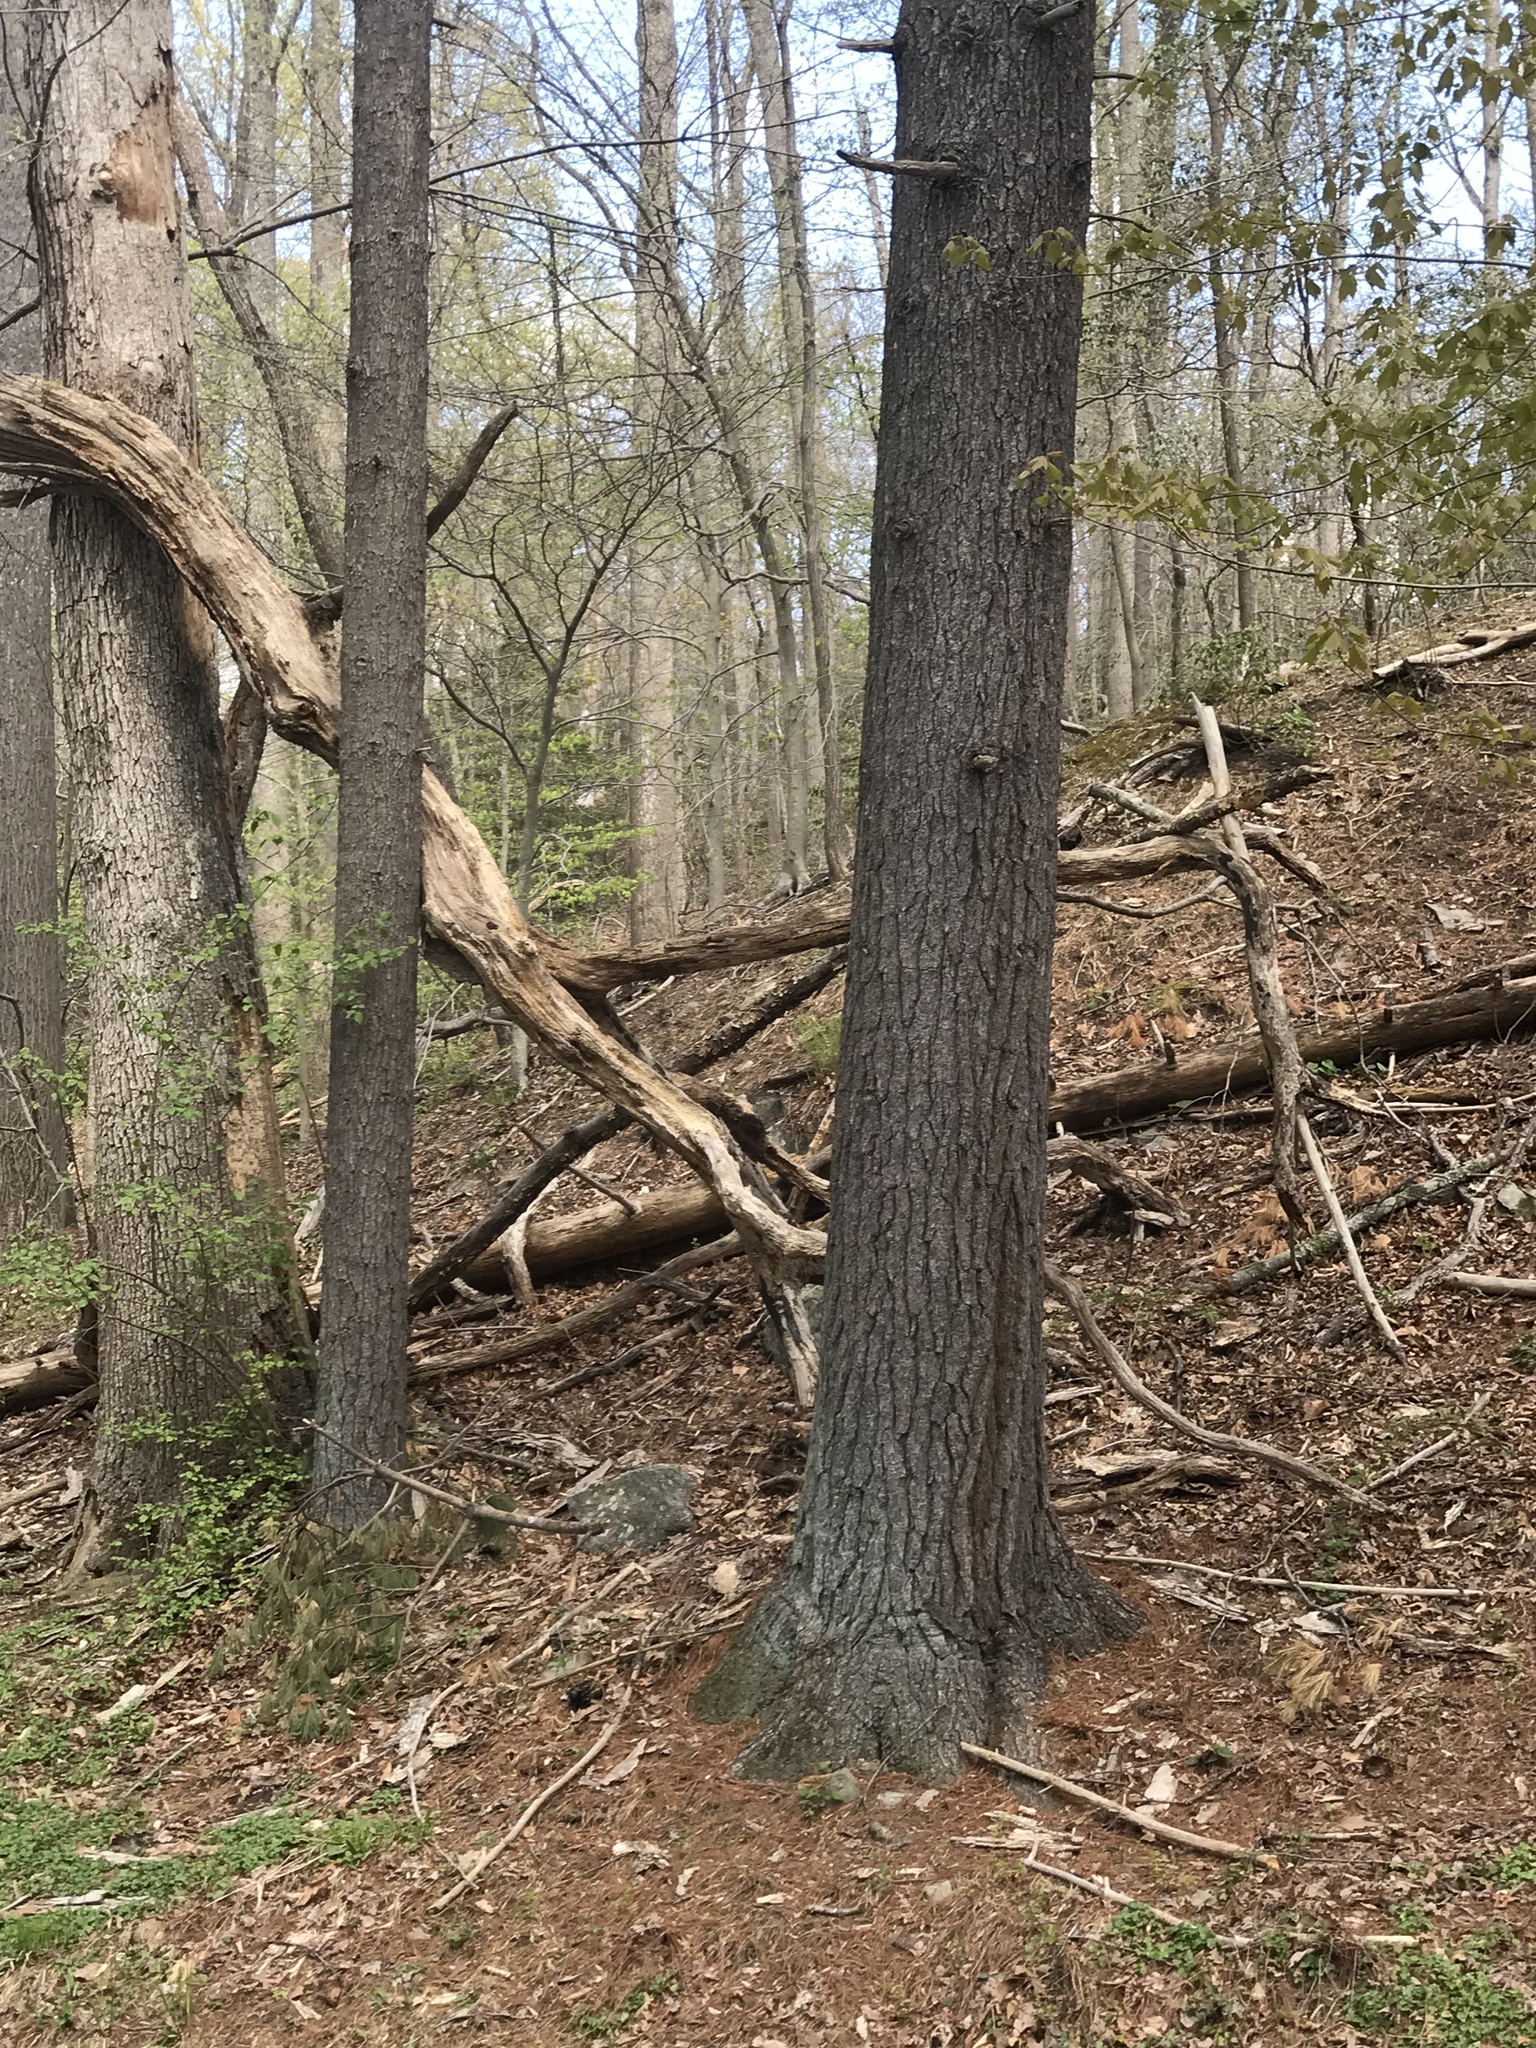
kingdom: Plantae
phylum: Tracheophyta
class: Pinopsida
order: Pinales
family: Pinaceae
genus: Pinus
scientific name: Pinus strobus
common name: Weymouth pine
